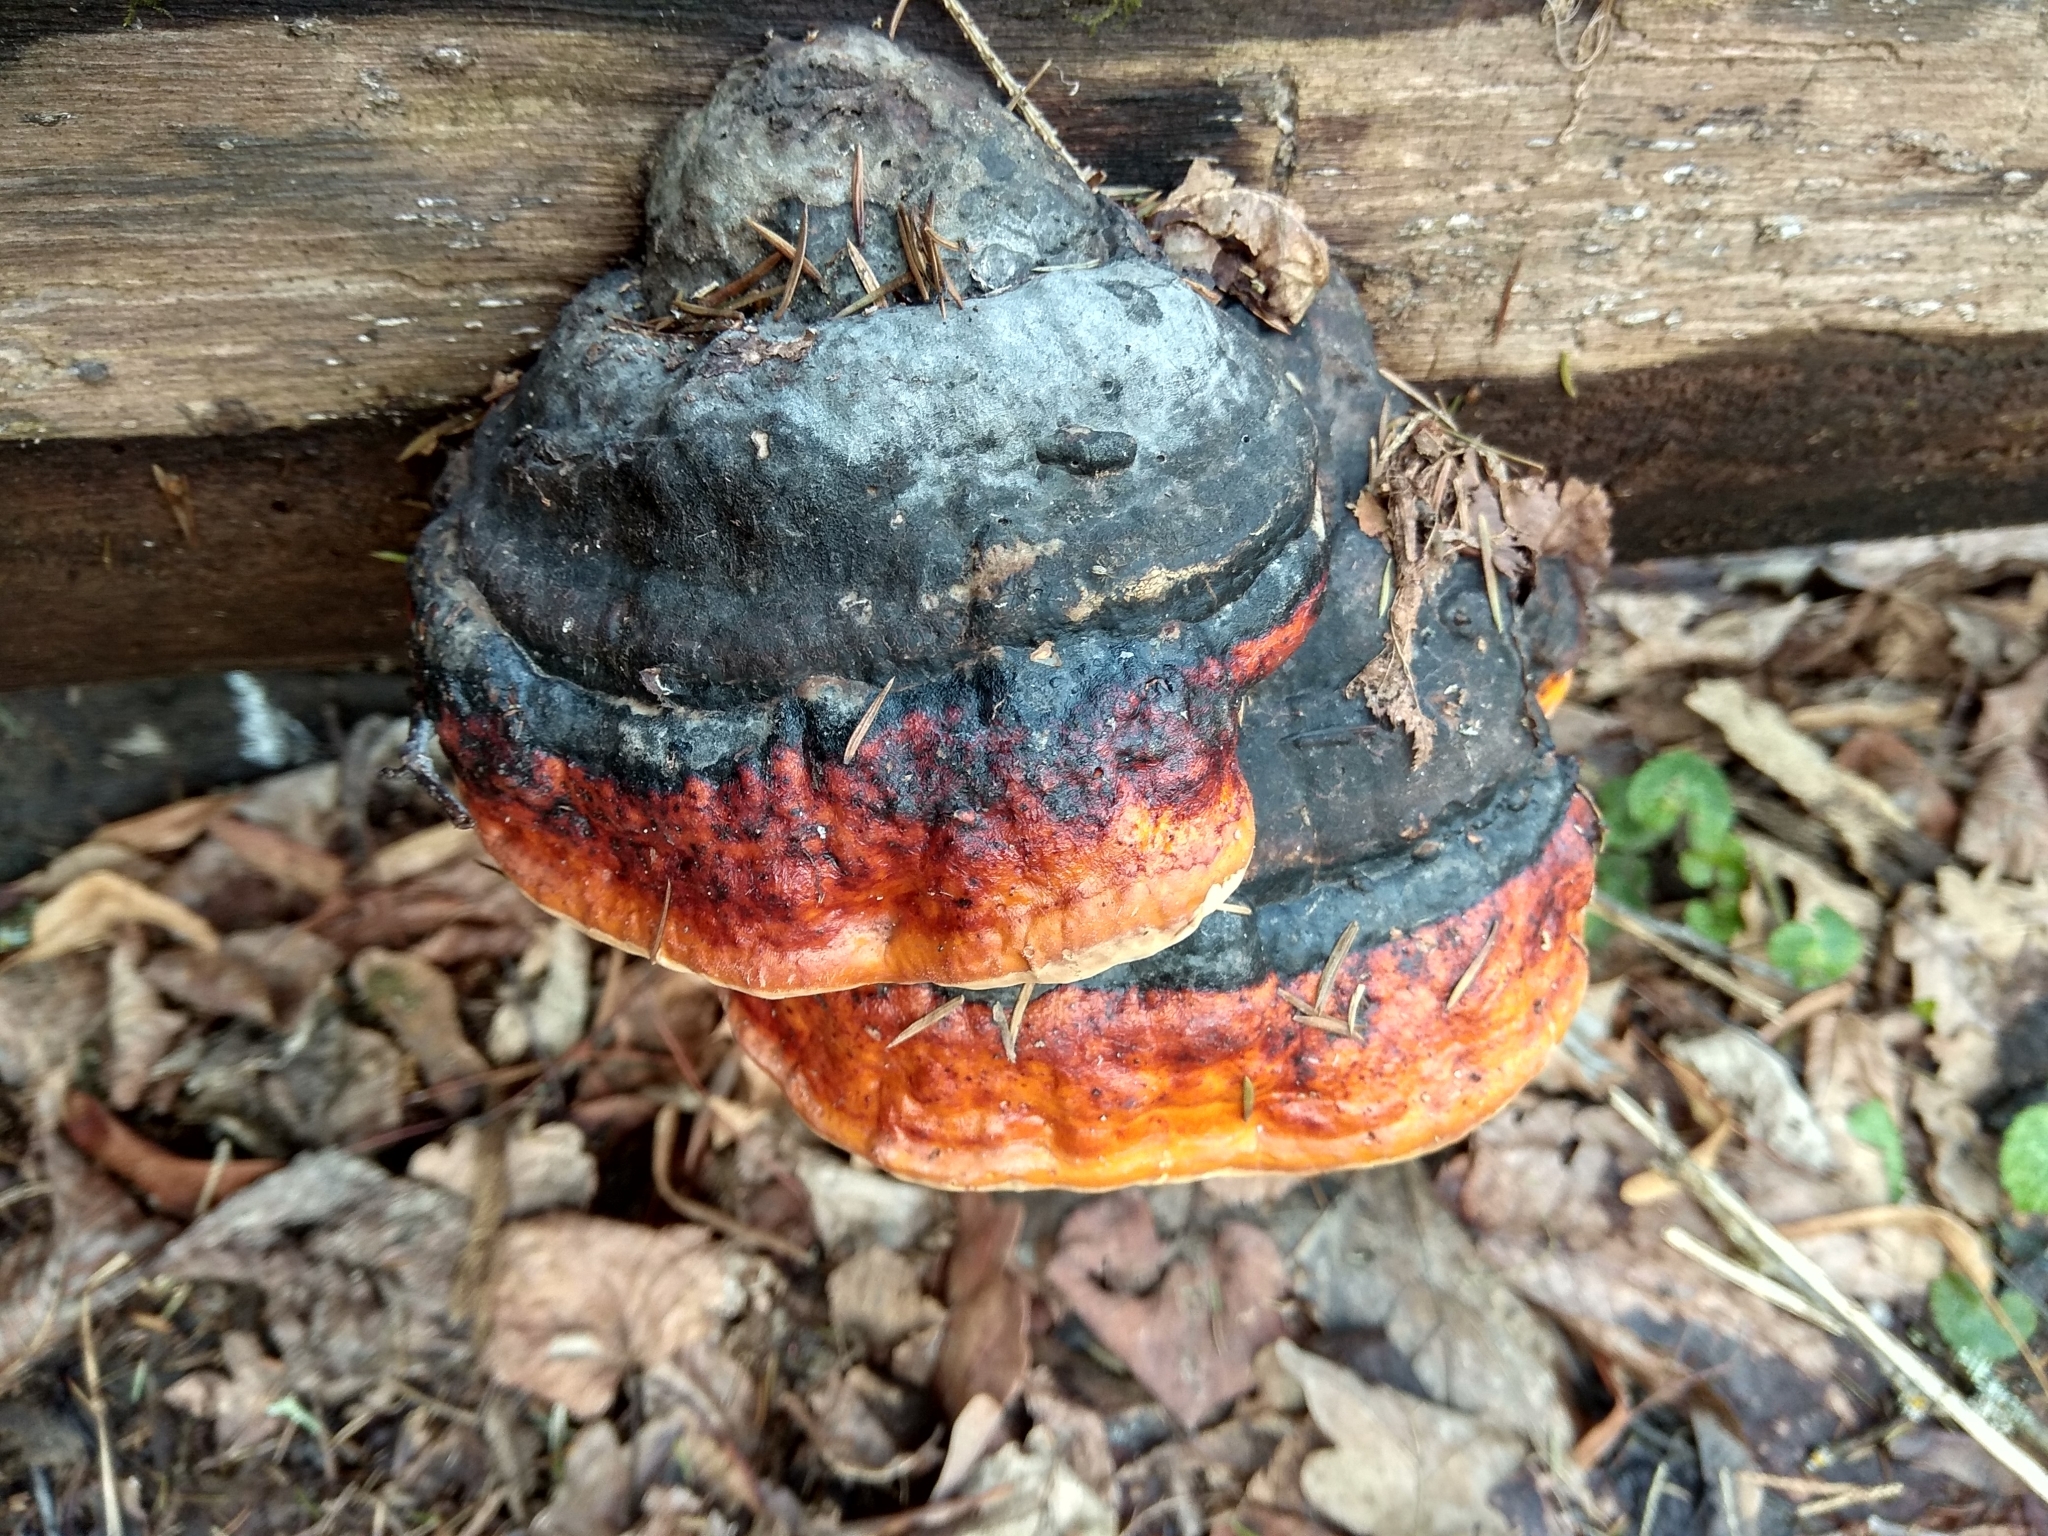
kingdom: Fungi
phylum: Basidiomycota
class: Agaricomycetes
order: Polyporales
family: Fomitopsidaceae
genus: Fomitopsis
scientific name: Fomitopsis pinicola
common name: Red-belted bracket
